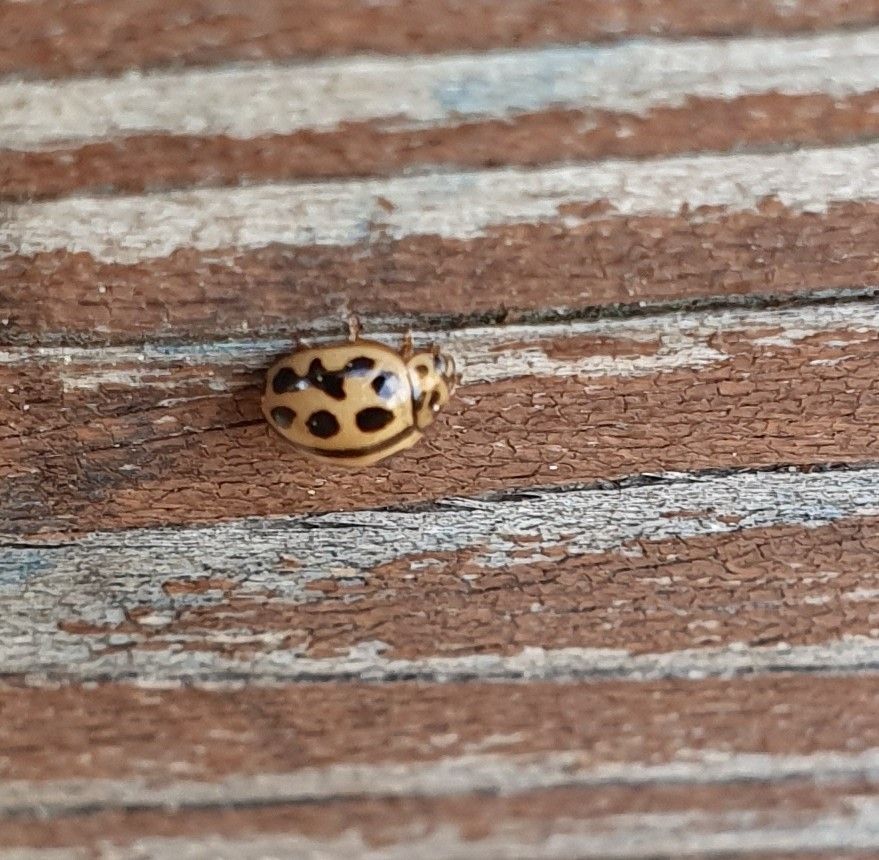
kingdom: Animalia
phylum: Arthropoda
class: Insecta
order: Coleoptera
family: Coccinellidae
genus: Tytthaspis
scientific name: Tytthaspis sedecimpunctata
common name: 16-spot ladybird
